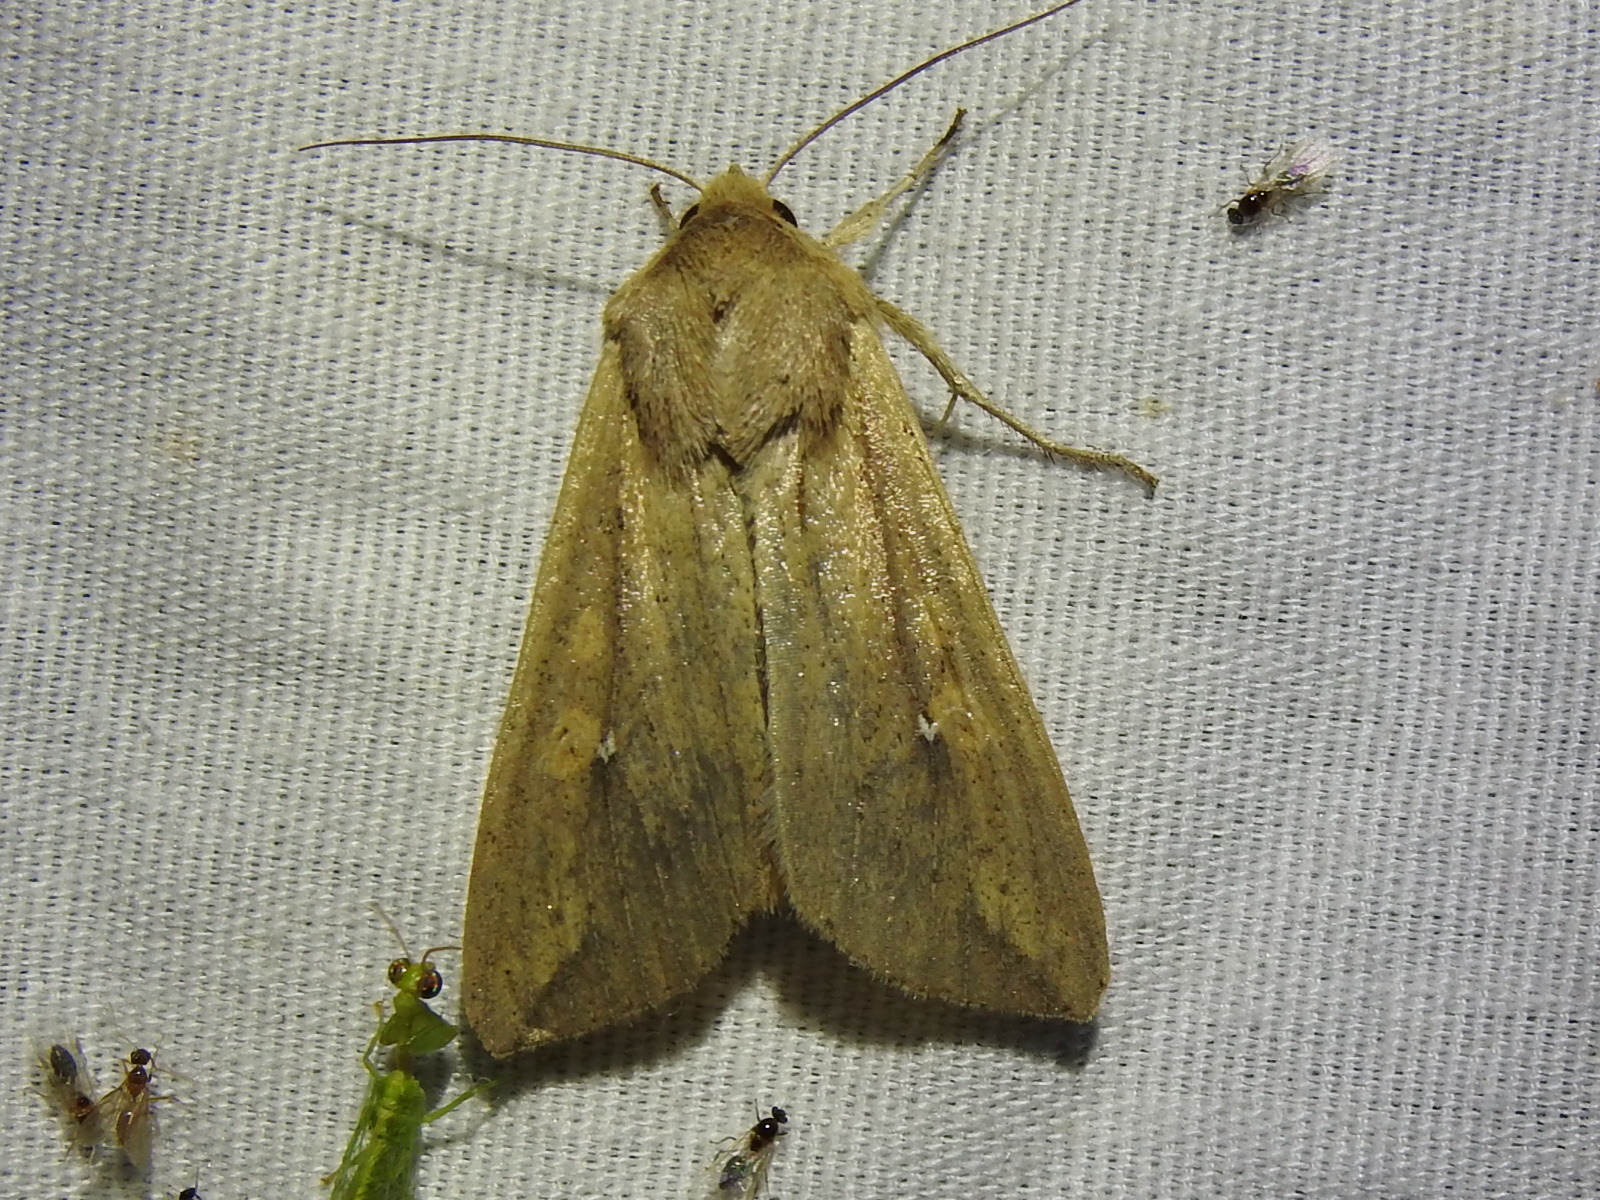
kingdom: Animalia
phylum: Arthropoda
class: Insecta
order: Lepidoptera
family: Noctuidae
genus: Mythimna
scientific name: Mythimna unipuncta
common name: White-speck
